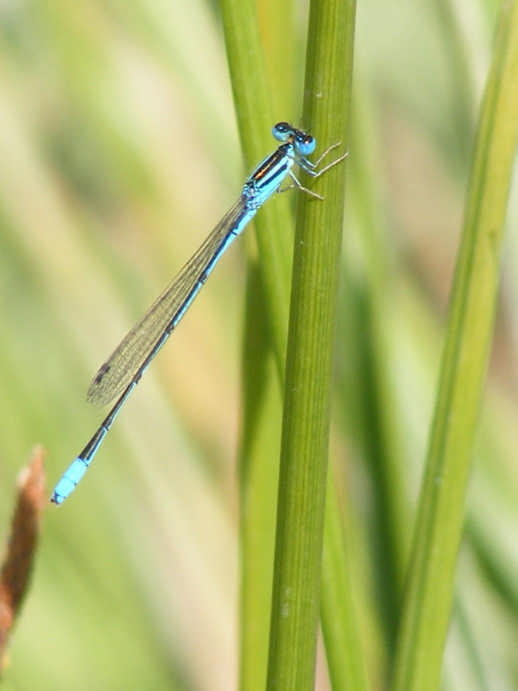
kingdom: Animalia
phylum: Arthropoda
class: Insecta
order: Odonata
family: Coenagrionidae
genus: Africallagma
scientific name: Africallagma glaucum
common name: Swamp bluet
